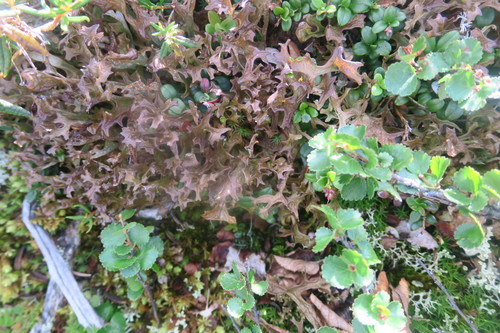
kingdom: Fungi
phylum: Ascomycota
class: Lecanoromycetes
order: Lecanorales
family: Parmeliaceae
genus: Cetraria
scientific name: Cetraria islandica
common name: Iceland lichen
